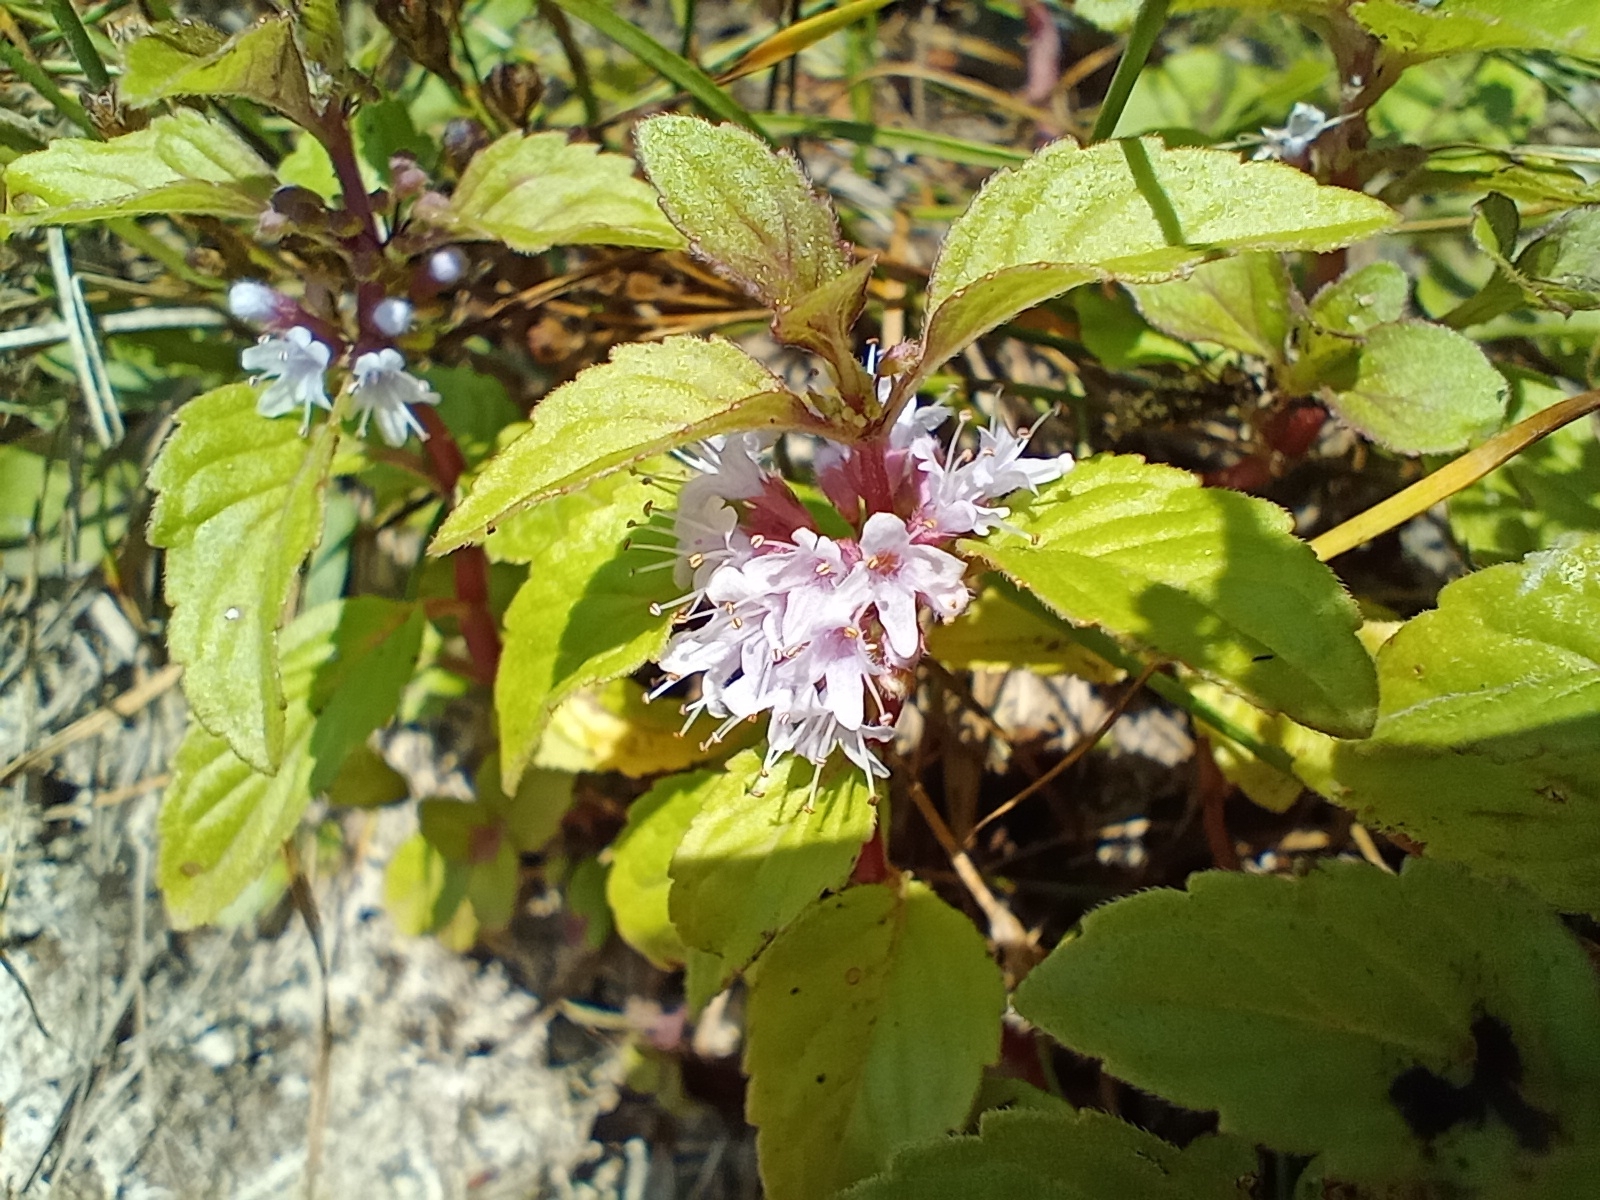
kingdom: Plantae
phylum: Tracheophyta
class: Magnoliopsida
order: Lamiales
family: Lamiaceae
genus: Mentha
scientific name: Mentha arvensis
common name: Corn mint
